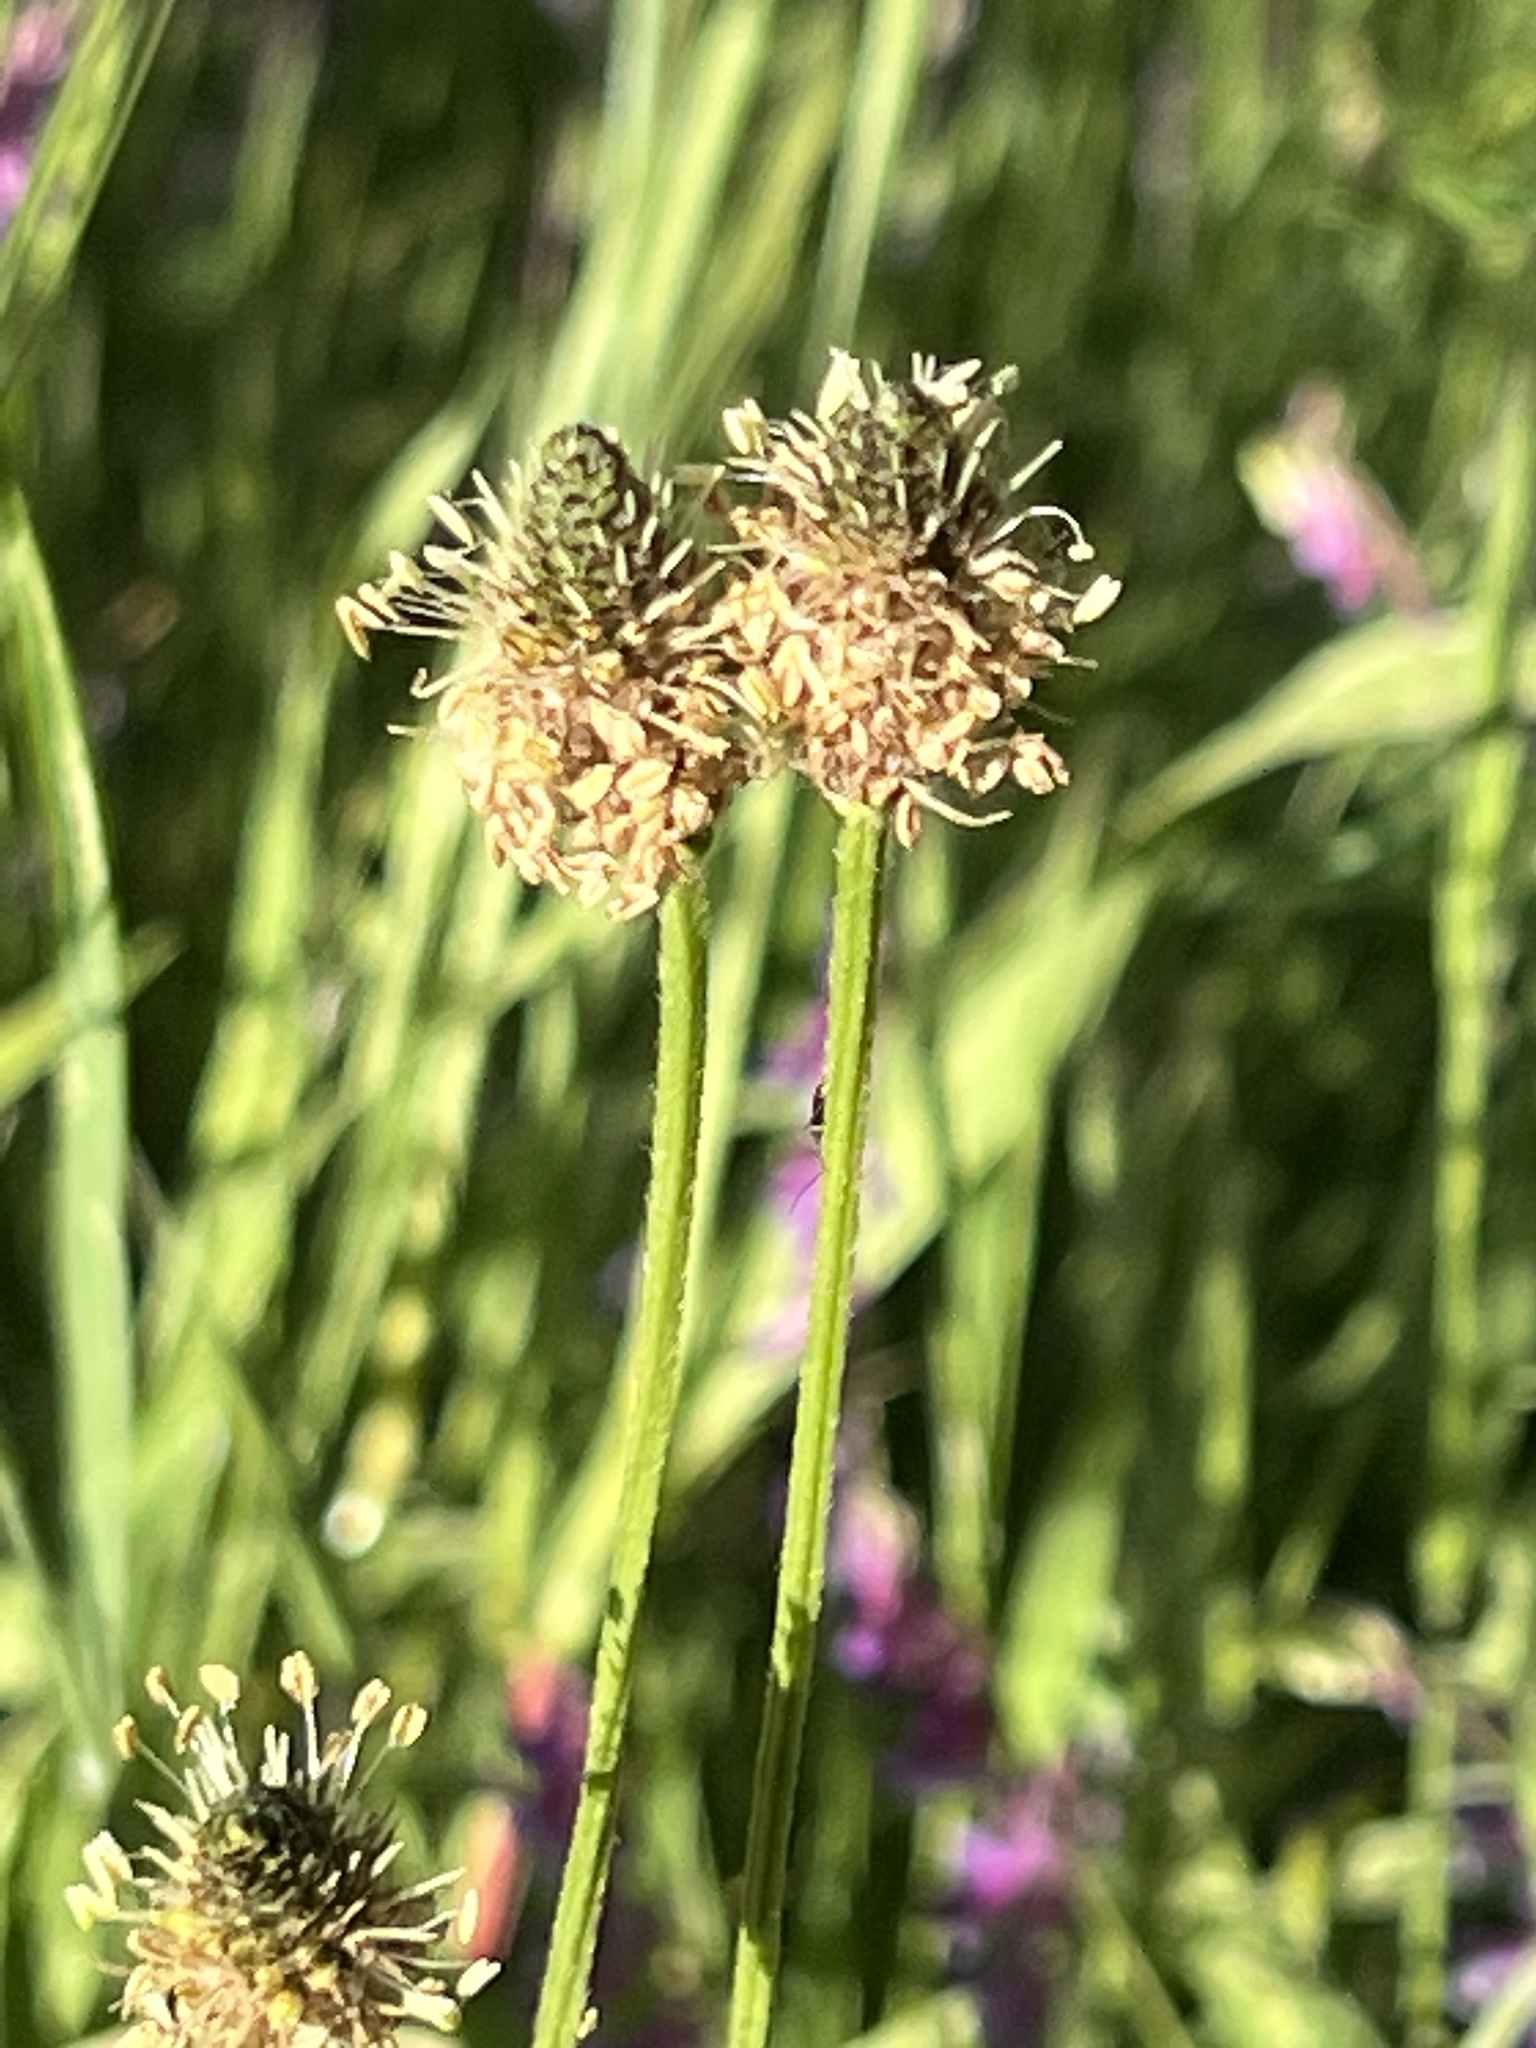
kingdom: Plantae
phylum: Tracheophyta
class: Magnoliopsida
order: Lamiales
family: Plantaginaceae
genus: Plantago
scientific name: Plantago lanceolata
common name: Ribwort plantain
